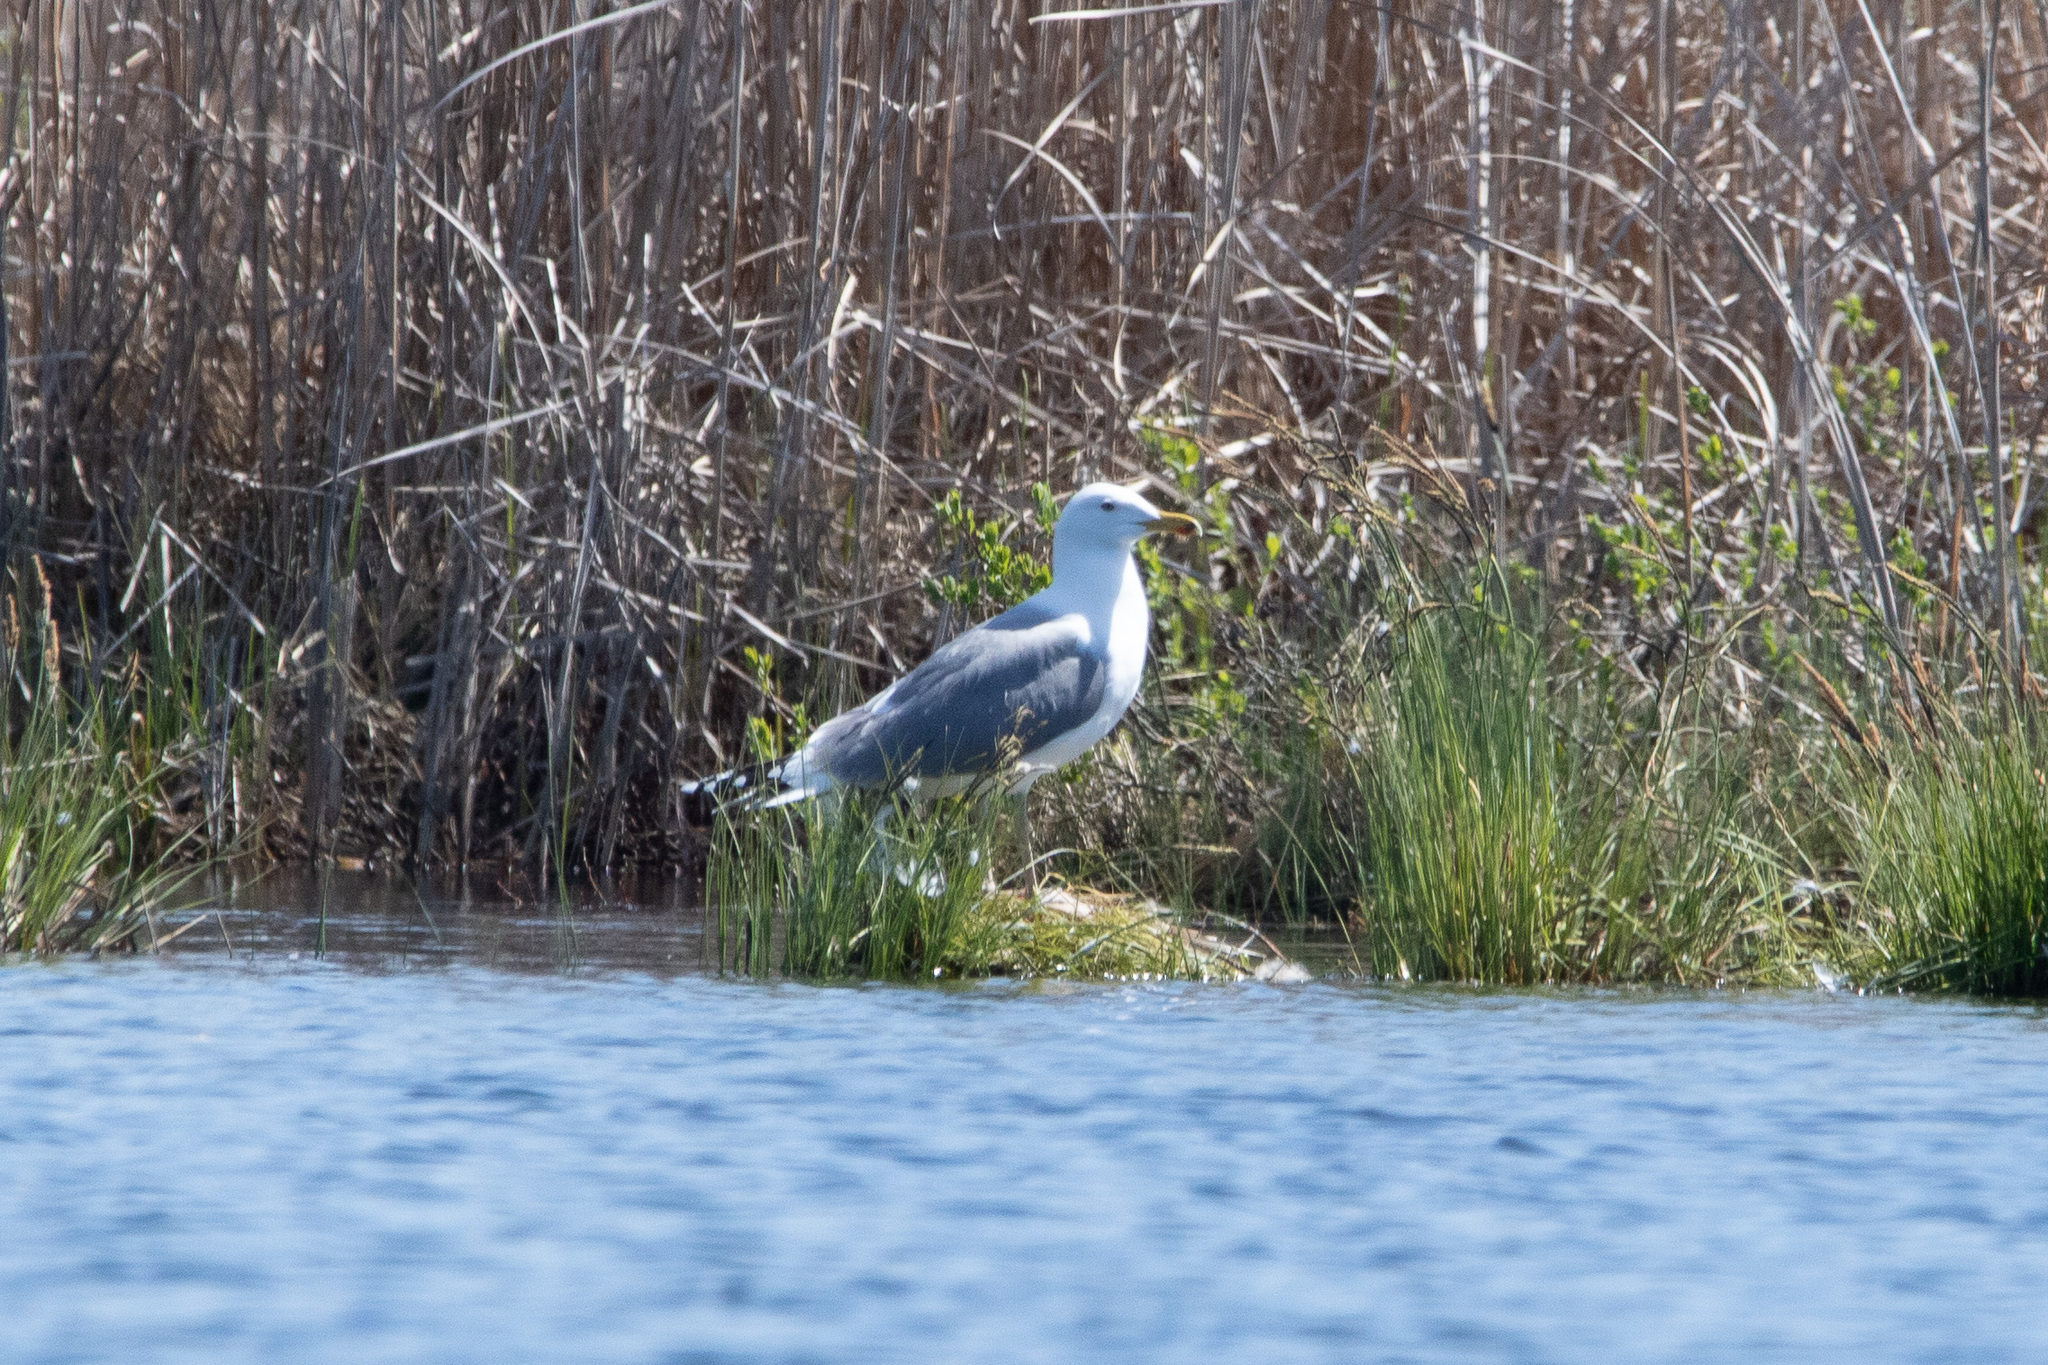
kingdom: Animalia
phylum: Chordata
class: Aves
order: Charadriiformes
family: Laridae
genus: Larus
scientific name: Larus cachinnans
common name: Caspian gull
